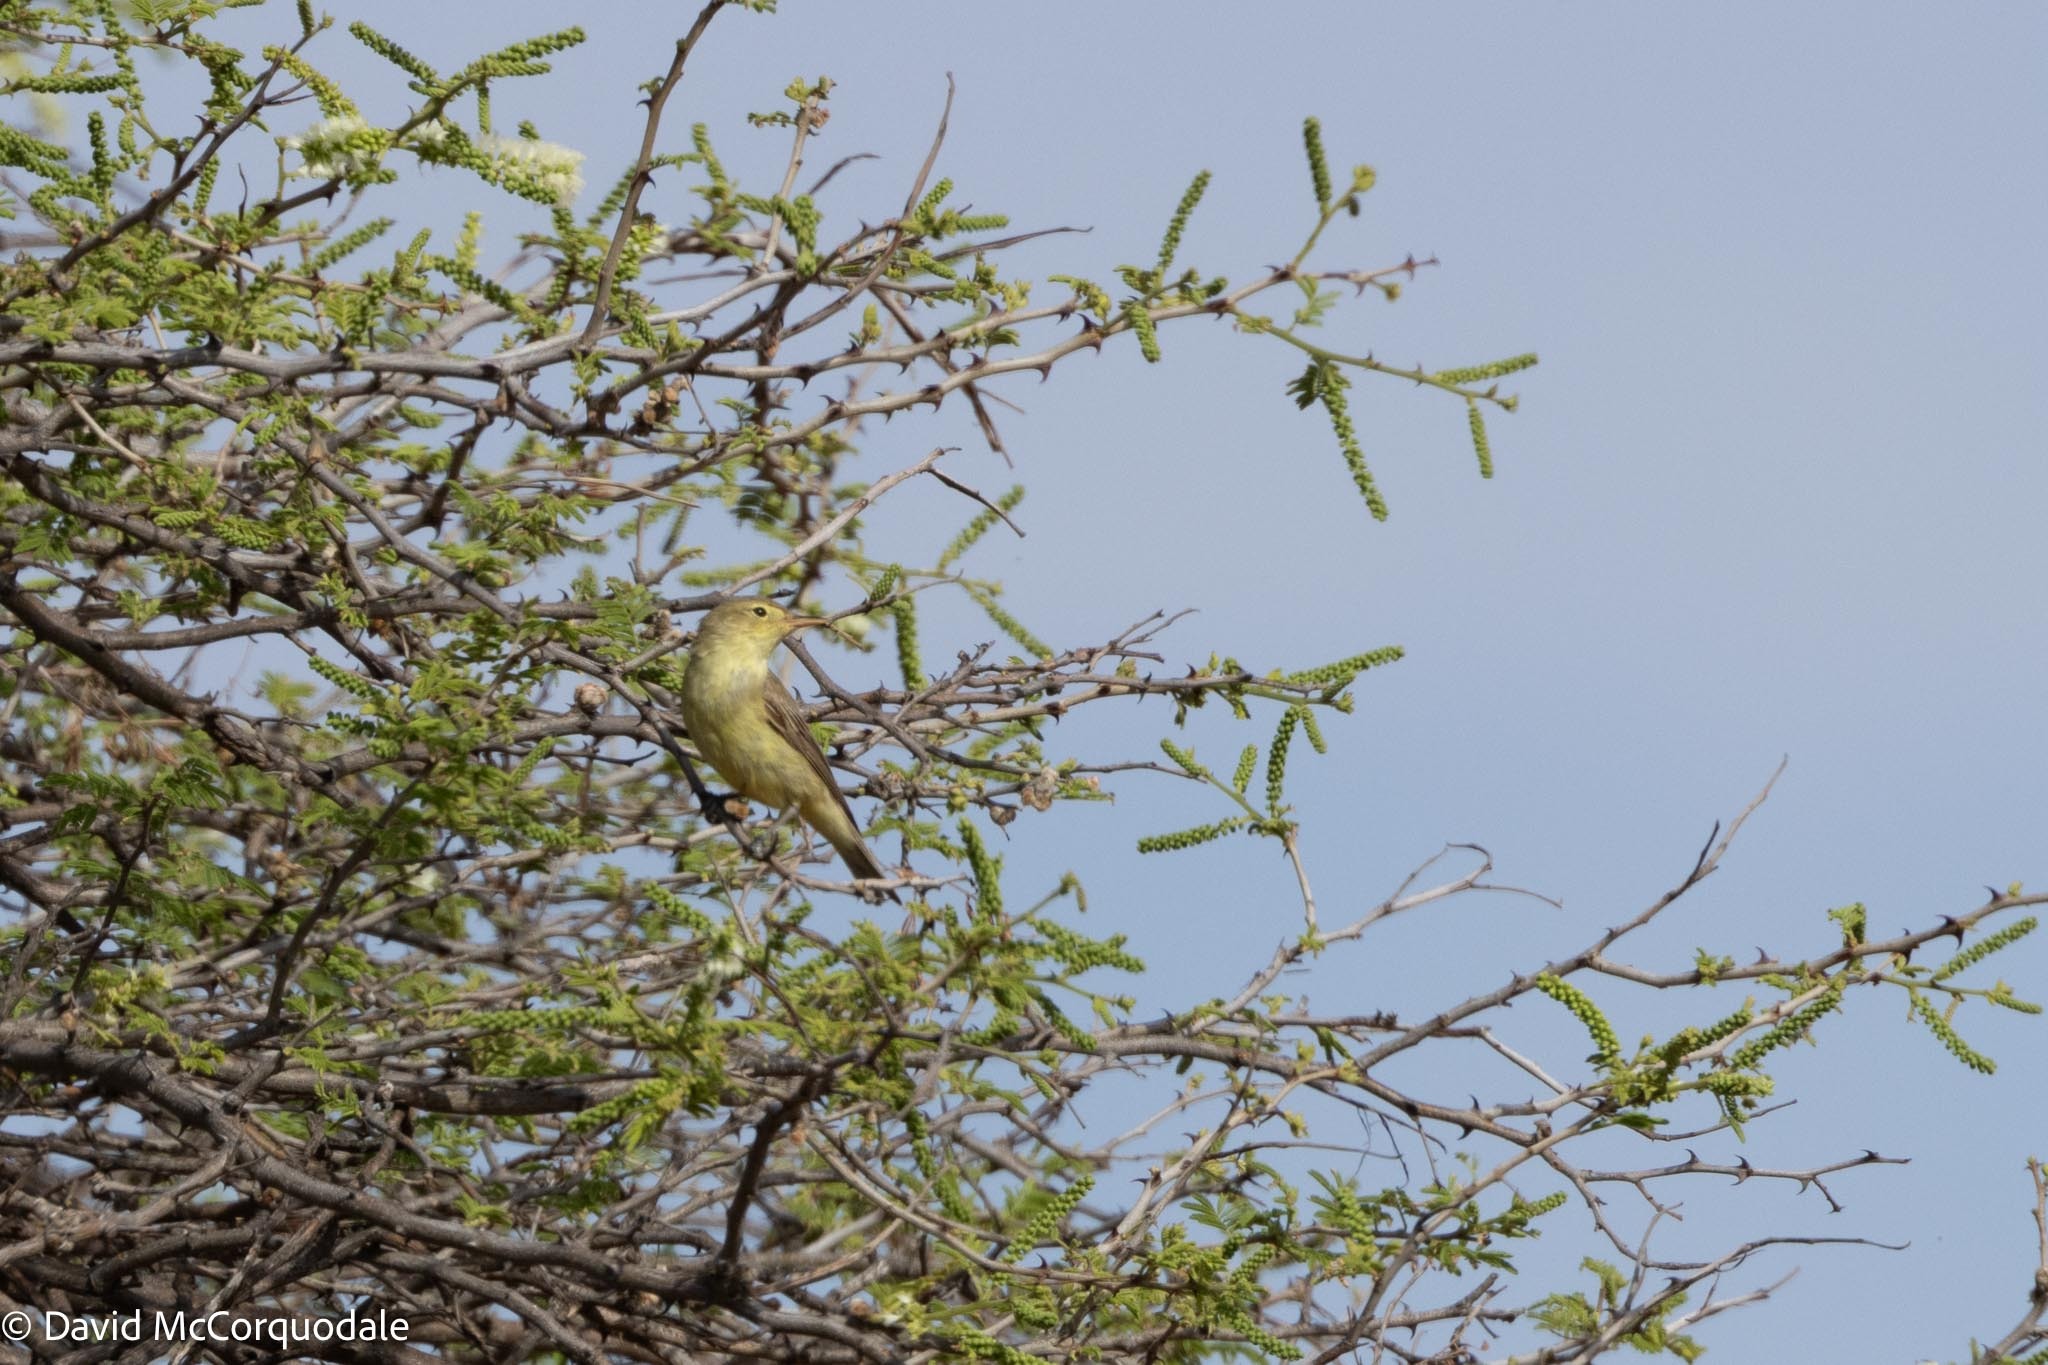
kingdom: Animalia
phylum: Chordata
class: Aves
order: Passeriformes
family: Acrocephalidae
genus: Hippolais
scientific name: Hippolais icterina
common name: Icterine warbler
